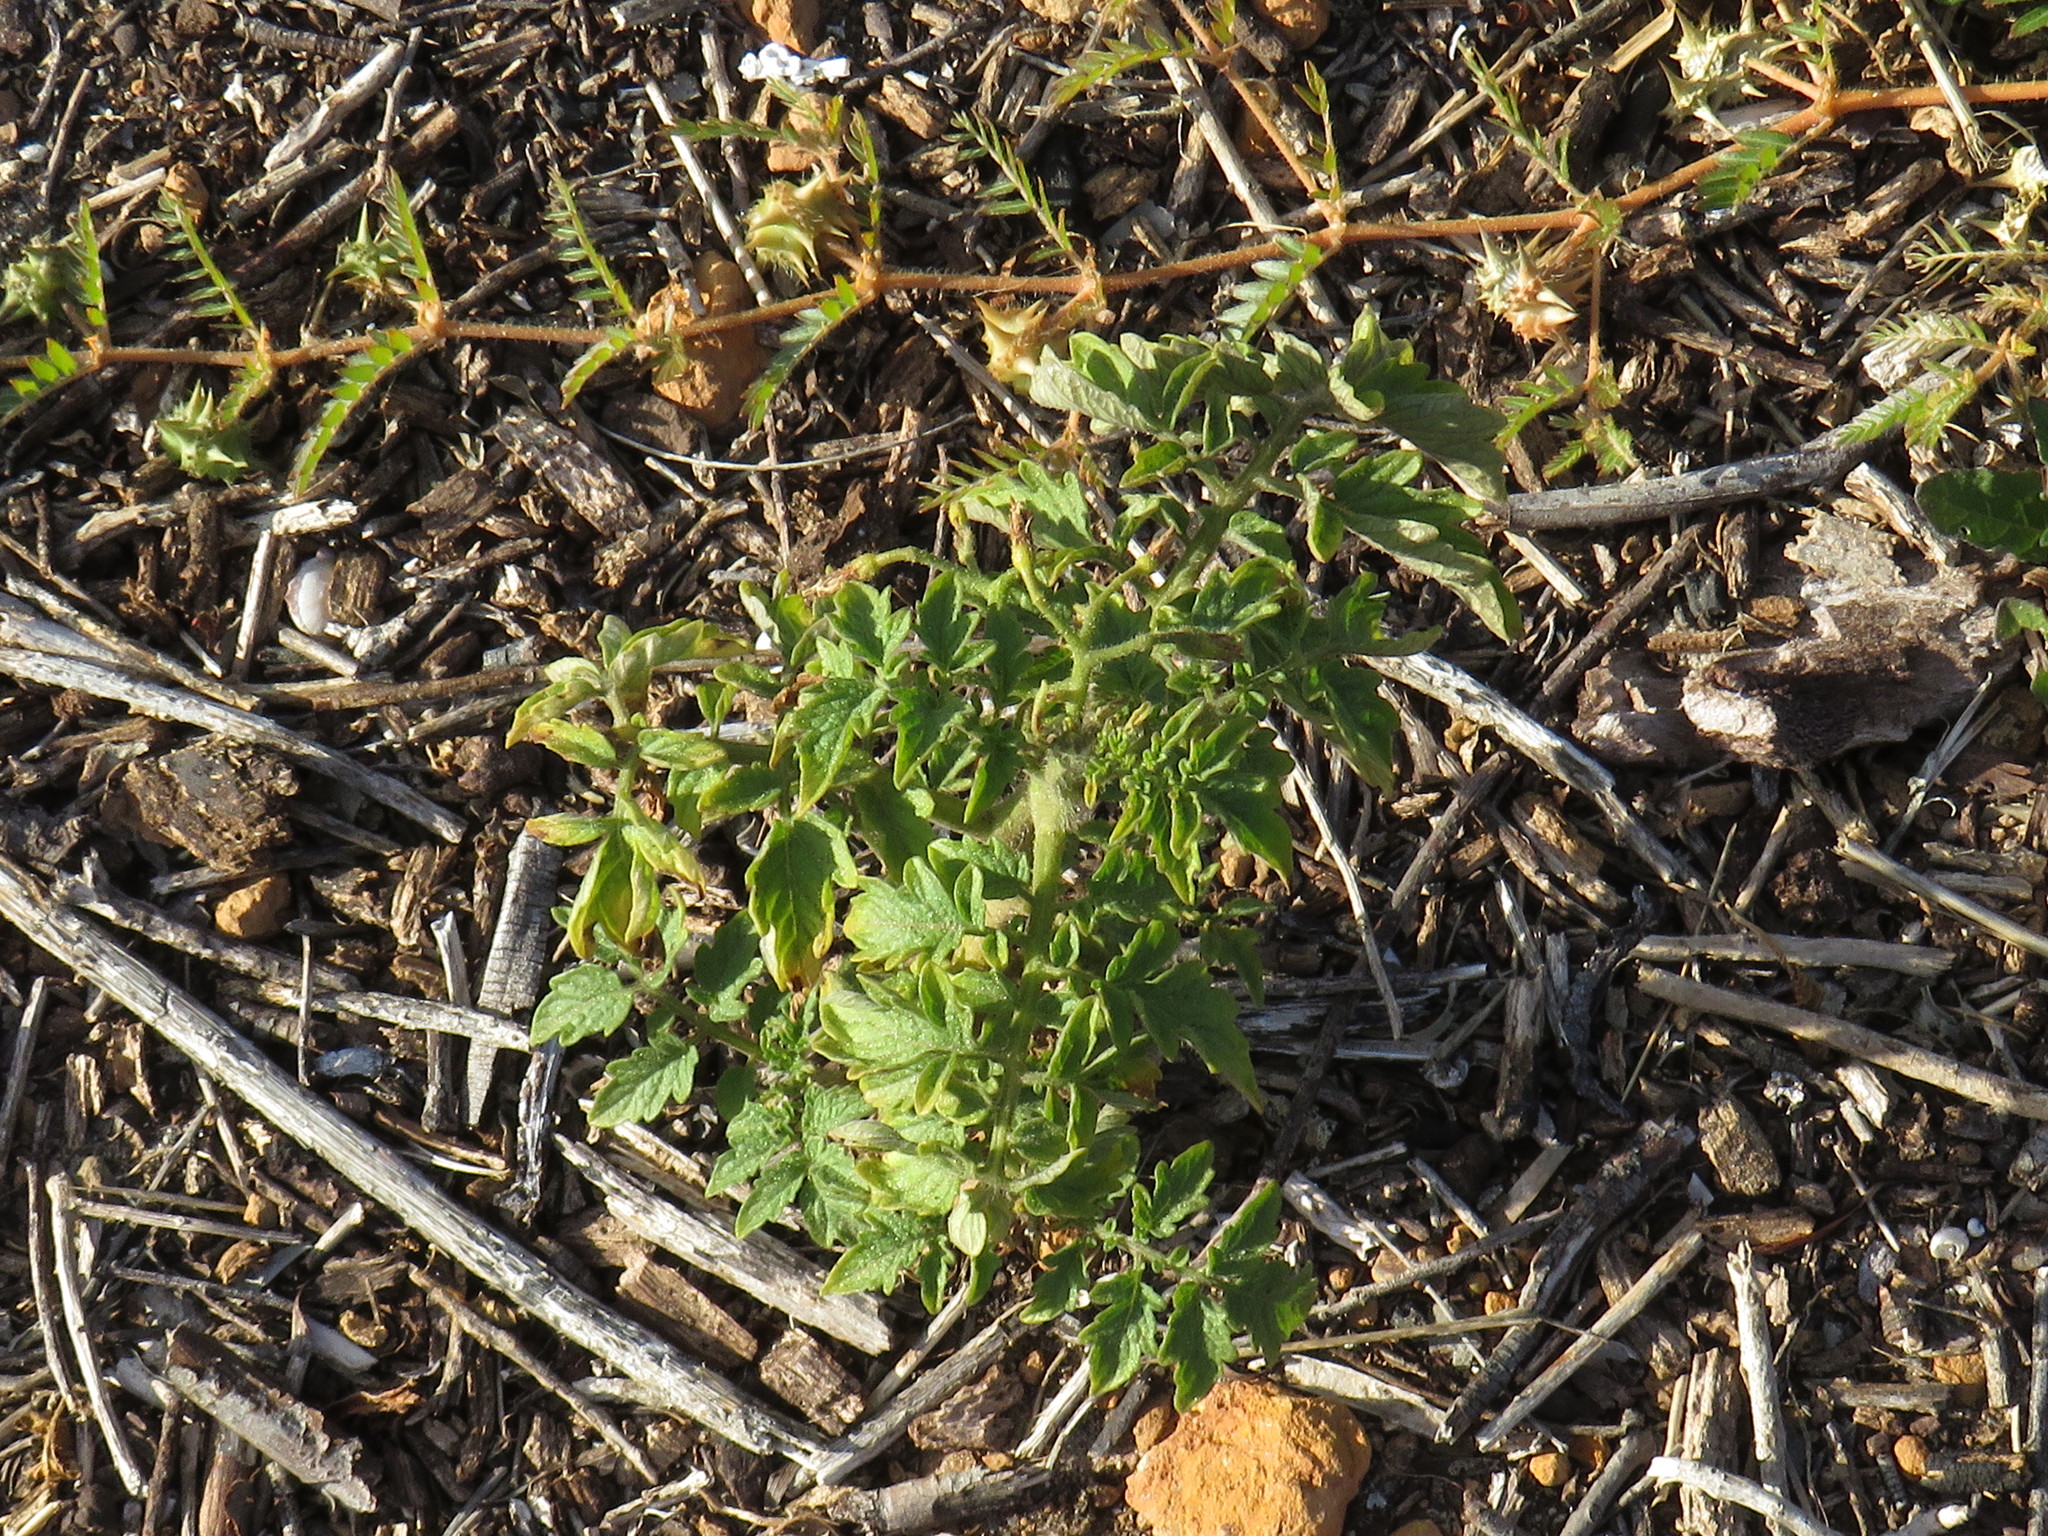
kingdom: Plantae
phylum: Tracheophyta
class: Magnoliopsida
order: Solanales
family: Solanaceae
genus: Solanum
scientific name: Solanum lycopersicum
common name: Garden tomato
